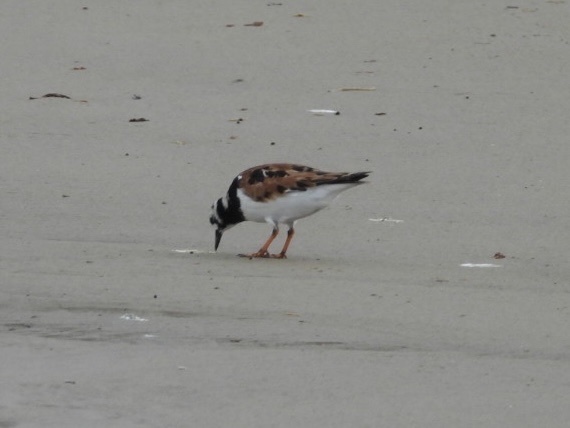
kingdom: Animalia
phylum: Chordata
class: Aves
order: Charadriiformes
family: Scolopacidae
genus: Arenaria
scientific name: Arenaria interpres
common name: Ruddy turnstone
